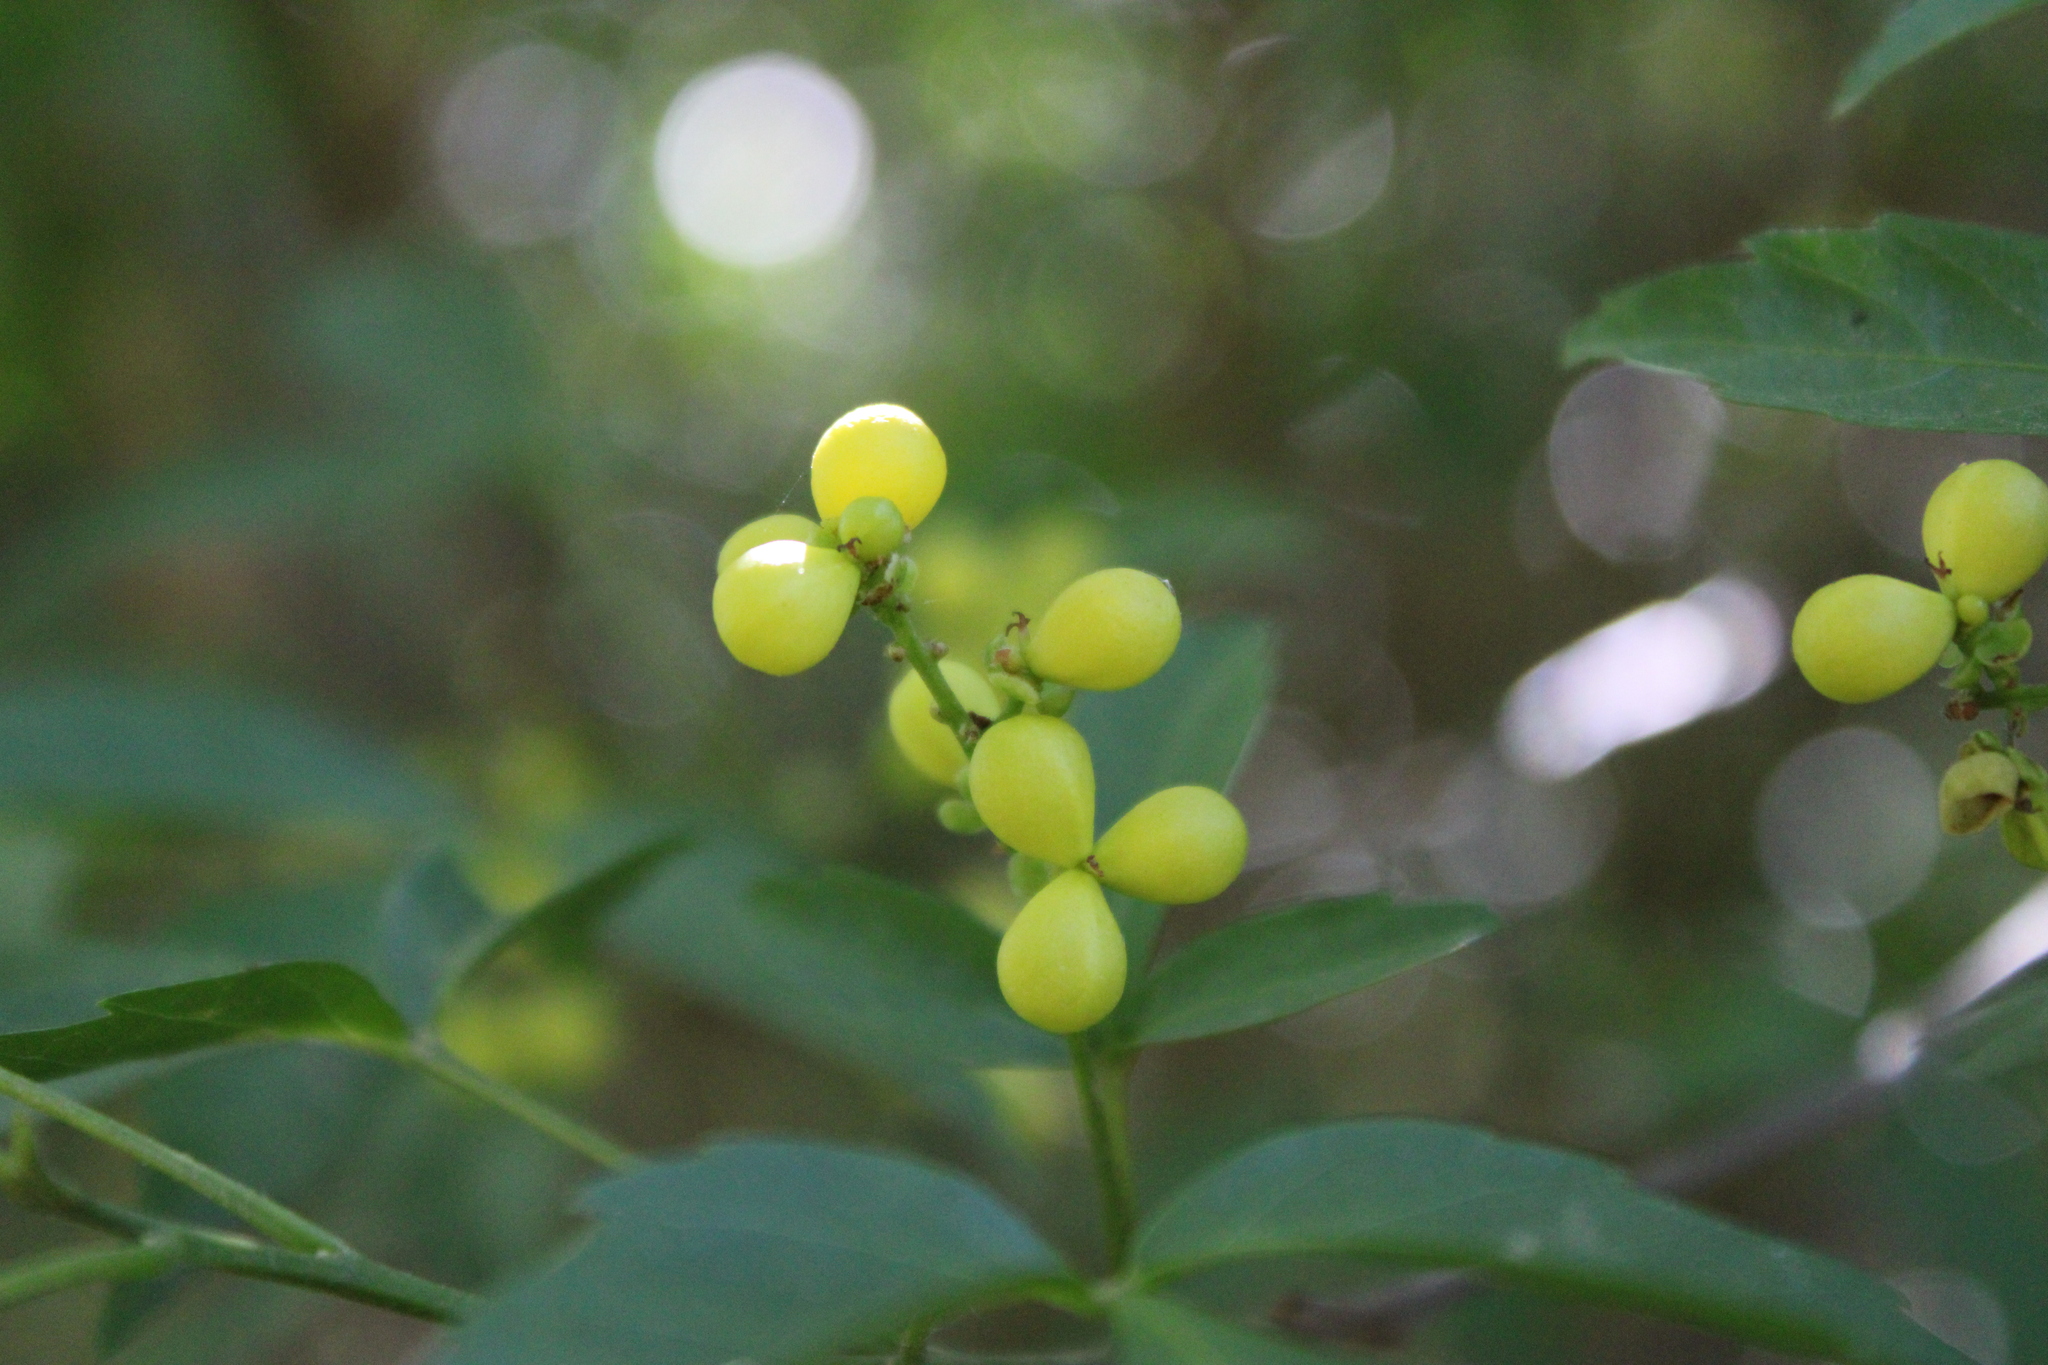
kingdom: Plantae
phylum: Tracheophyta
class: Magnoliopsida
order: Sapindales
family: Sapindaceae
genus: Allophylus
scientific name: Allophylus edulis
